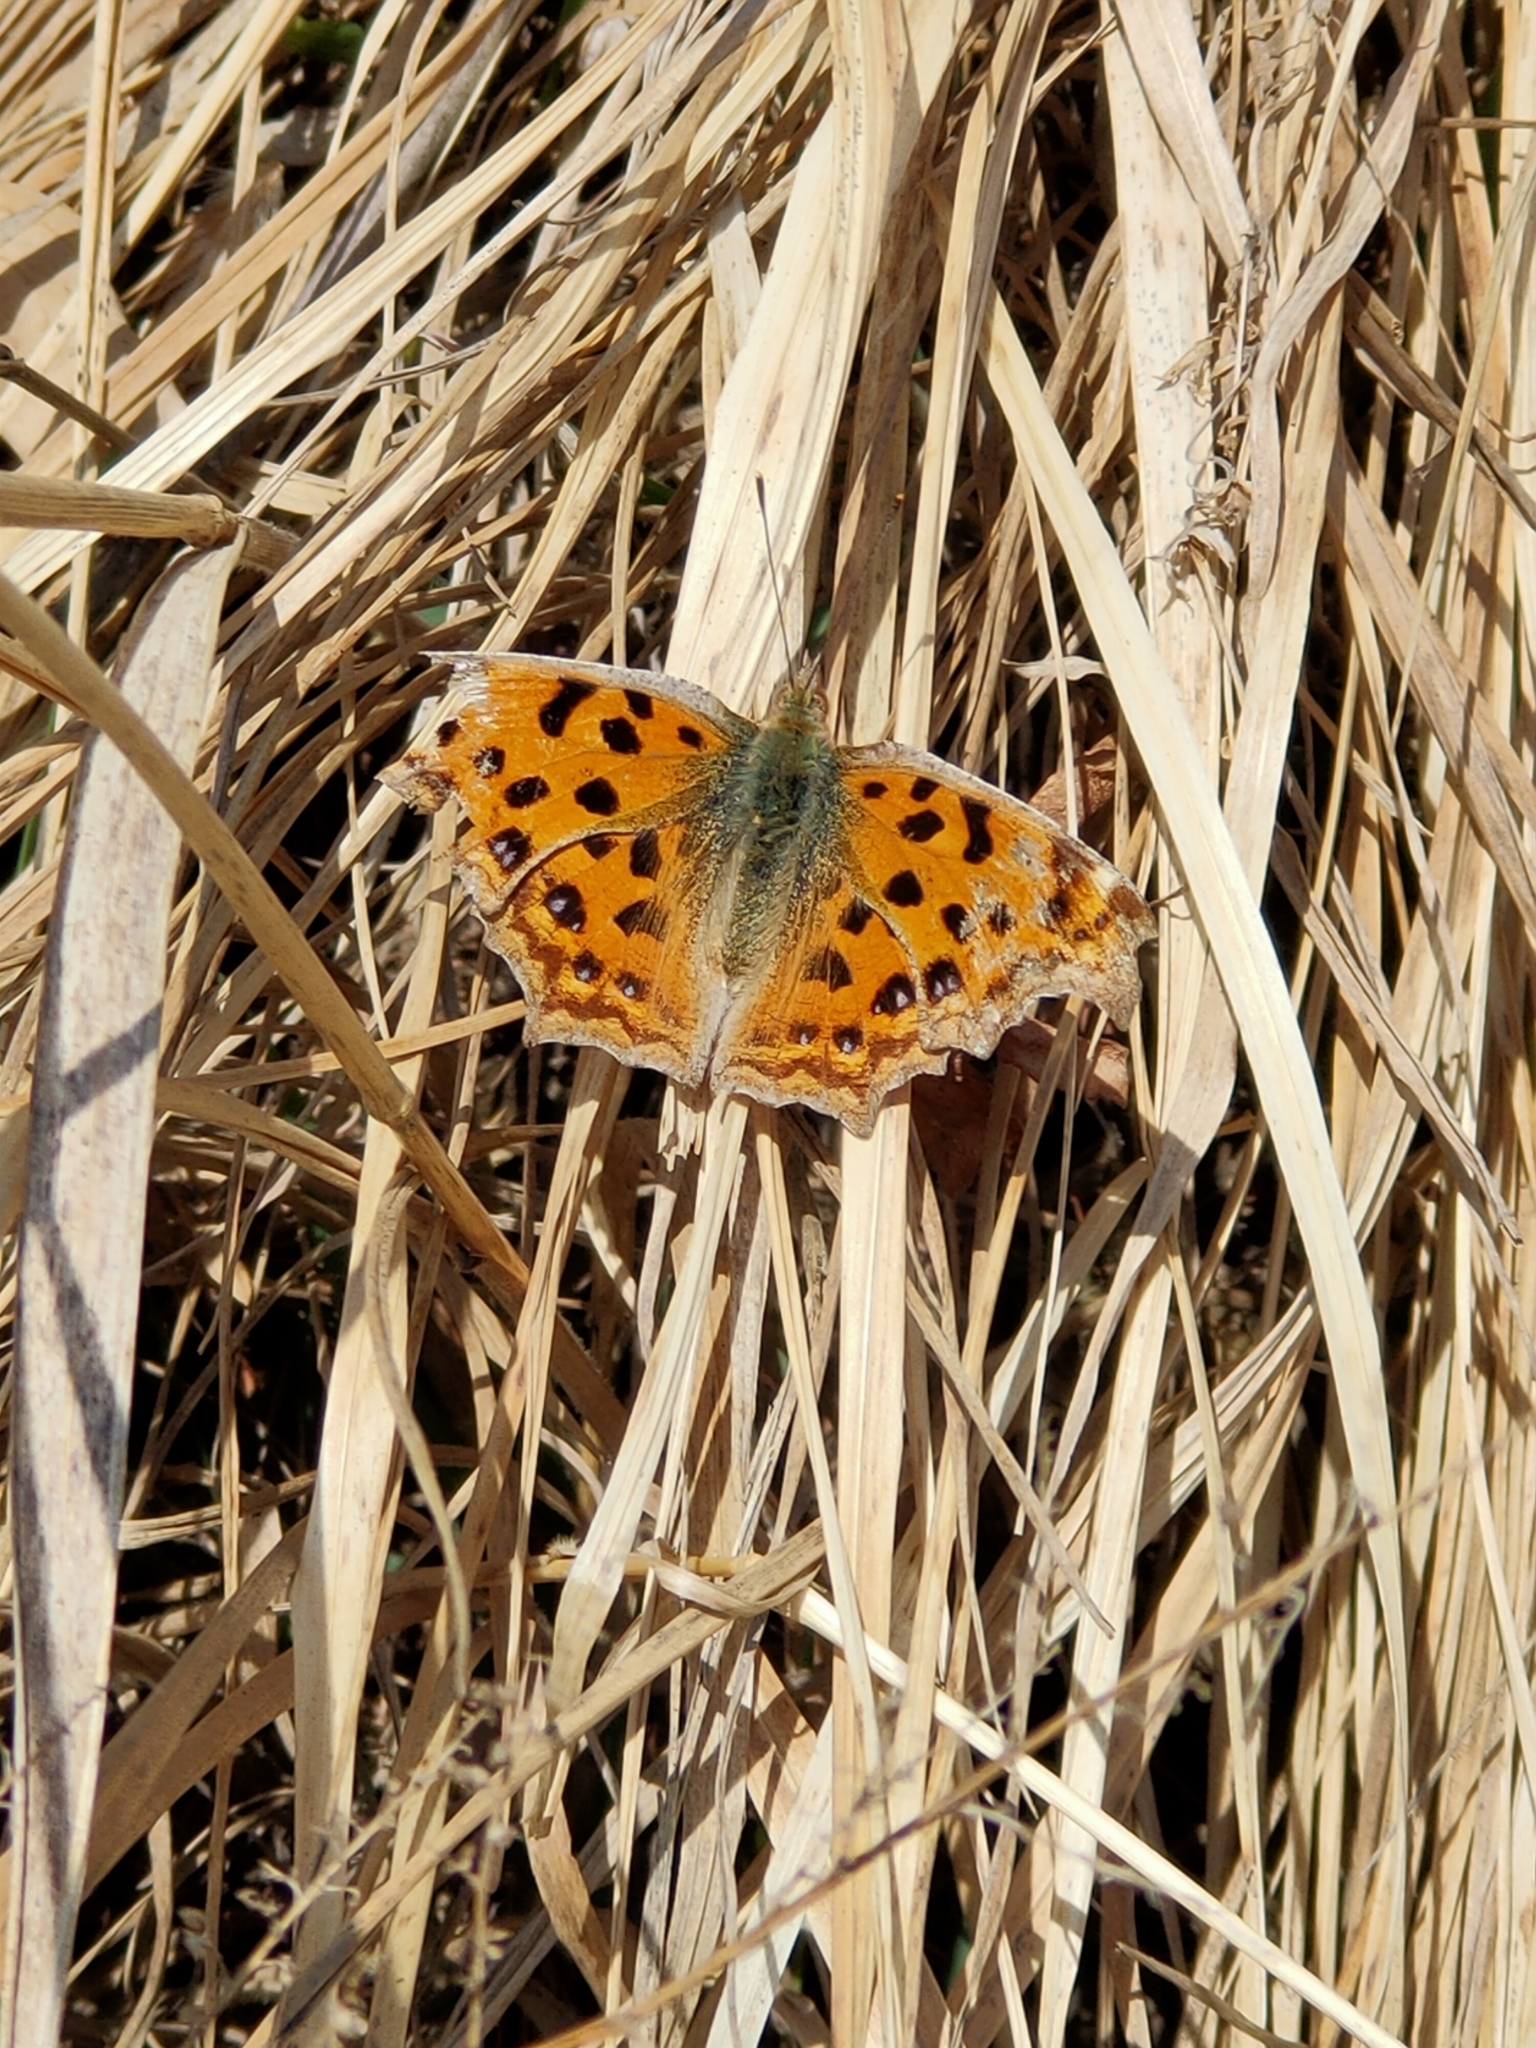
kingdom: Animalia
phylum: Arthropoda
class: Insecta
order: Lepidoptera
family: Nymphalidae
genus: Polygonia
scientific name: Polygonia c-aureum
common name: Asian comma
